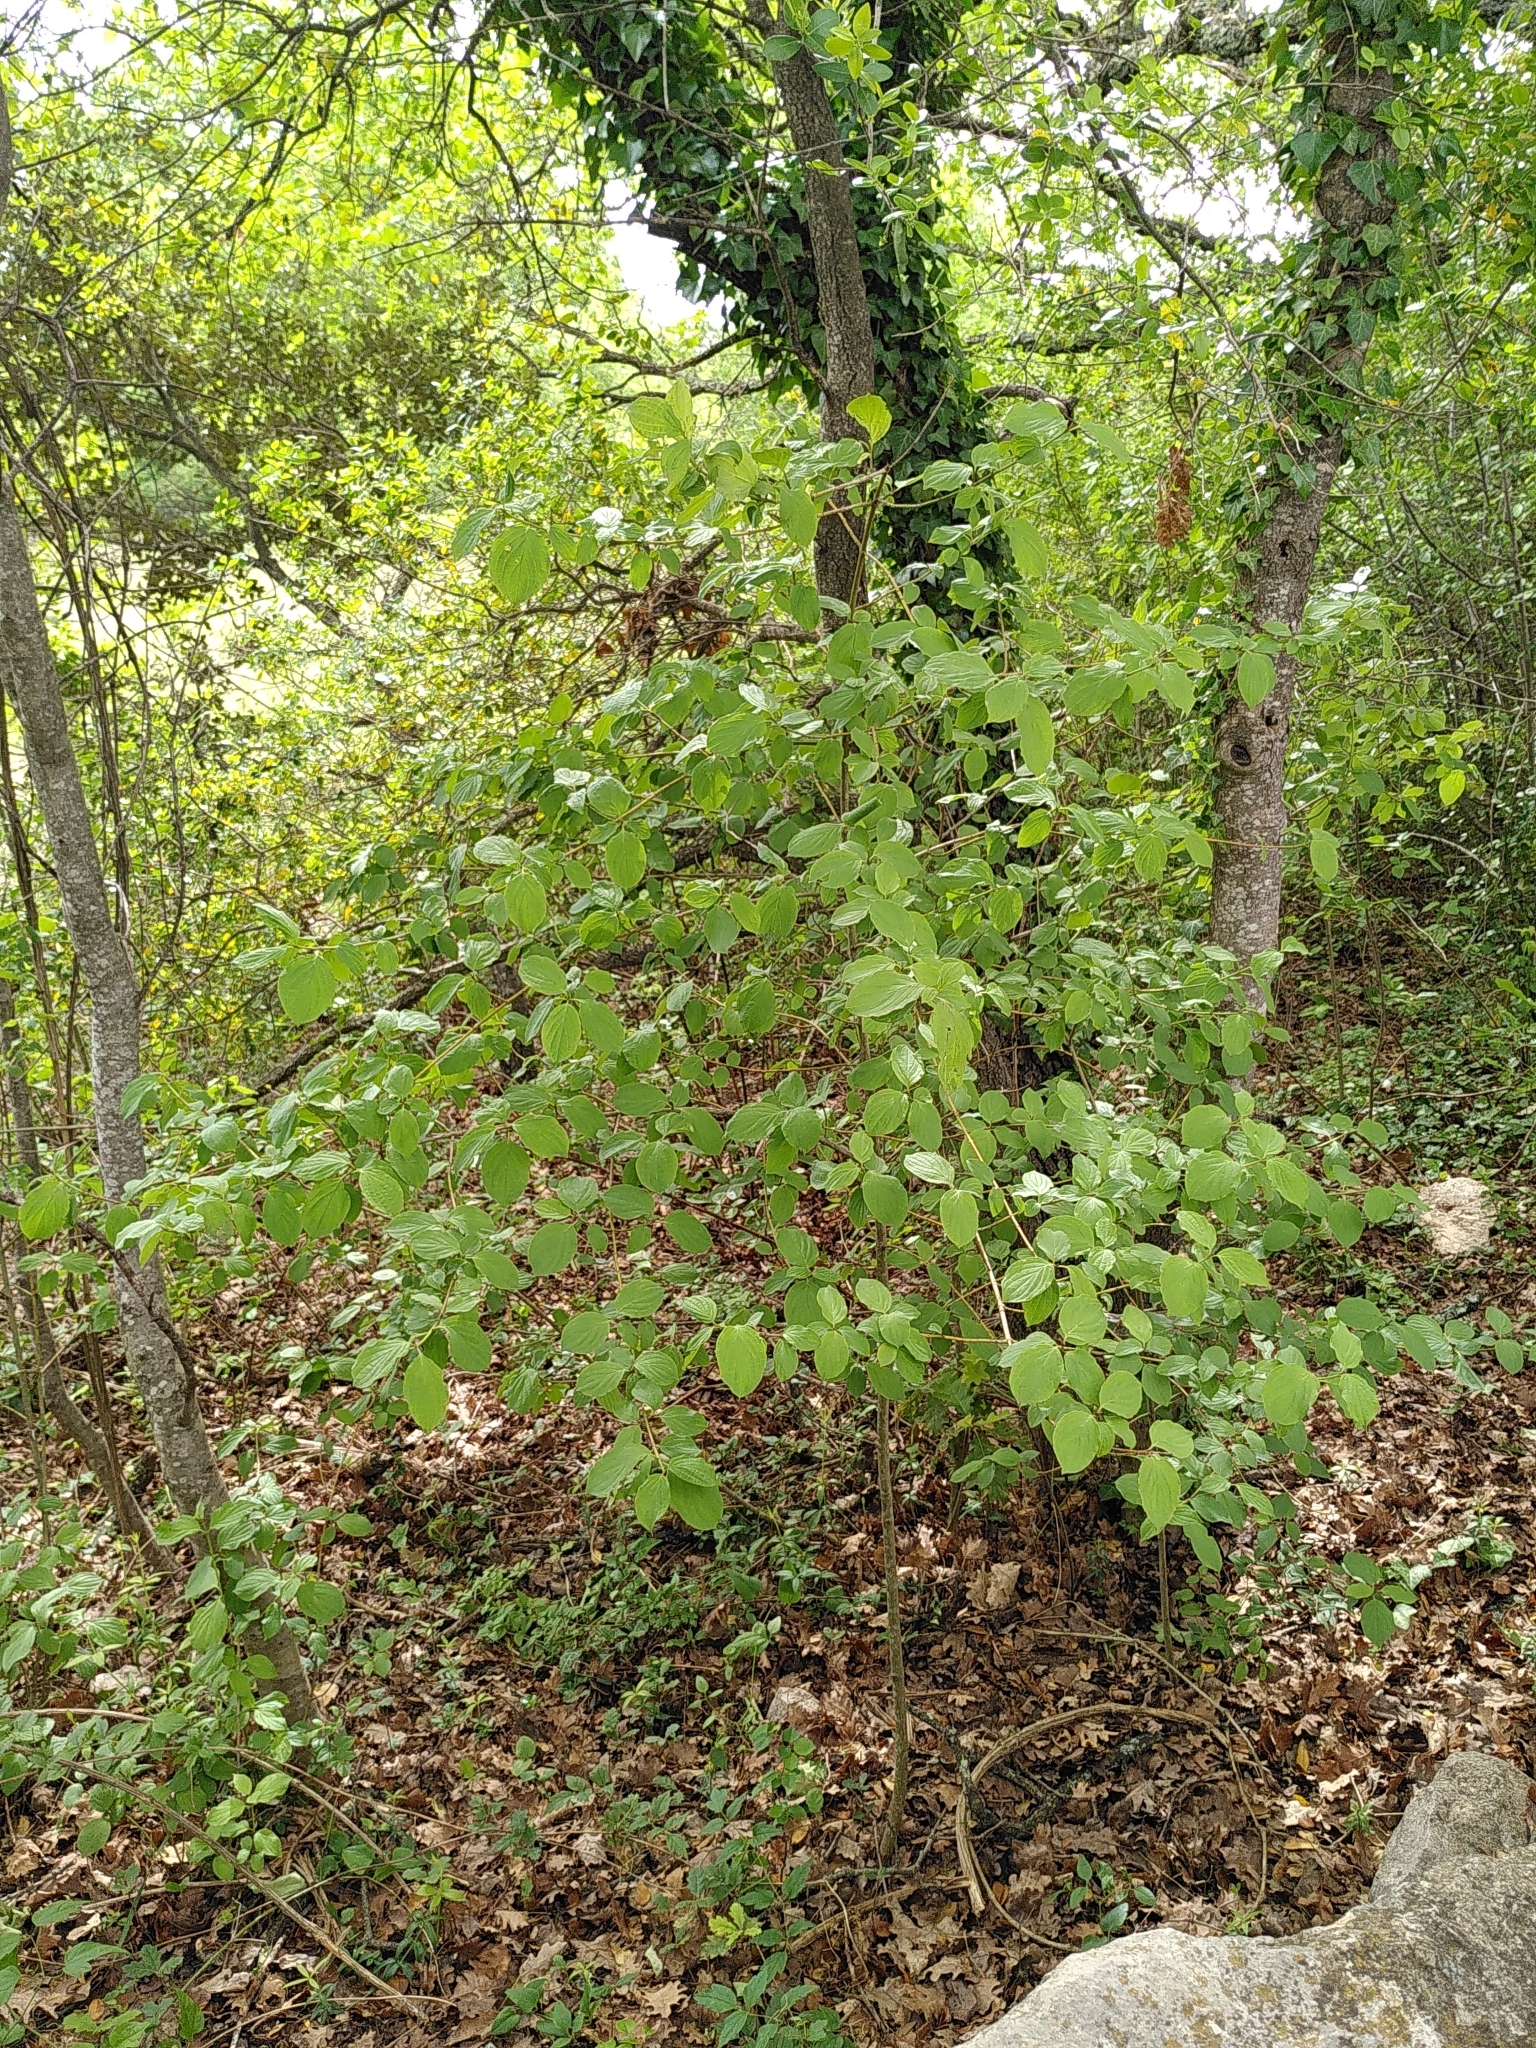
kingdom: Plantae
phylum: Tracheophyta
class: Magnoliopsida
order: Cornales
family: Cornaceae
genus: Cornus
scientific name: Cornus mas
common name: Cornelian-cherry
